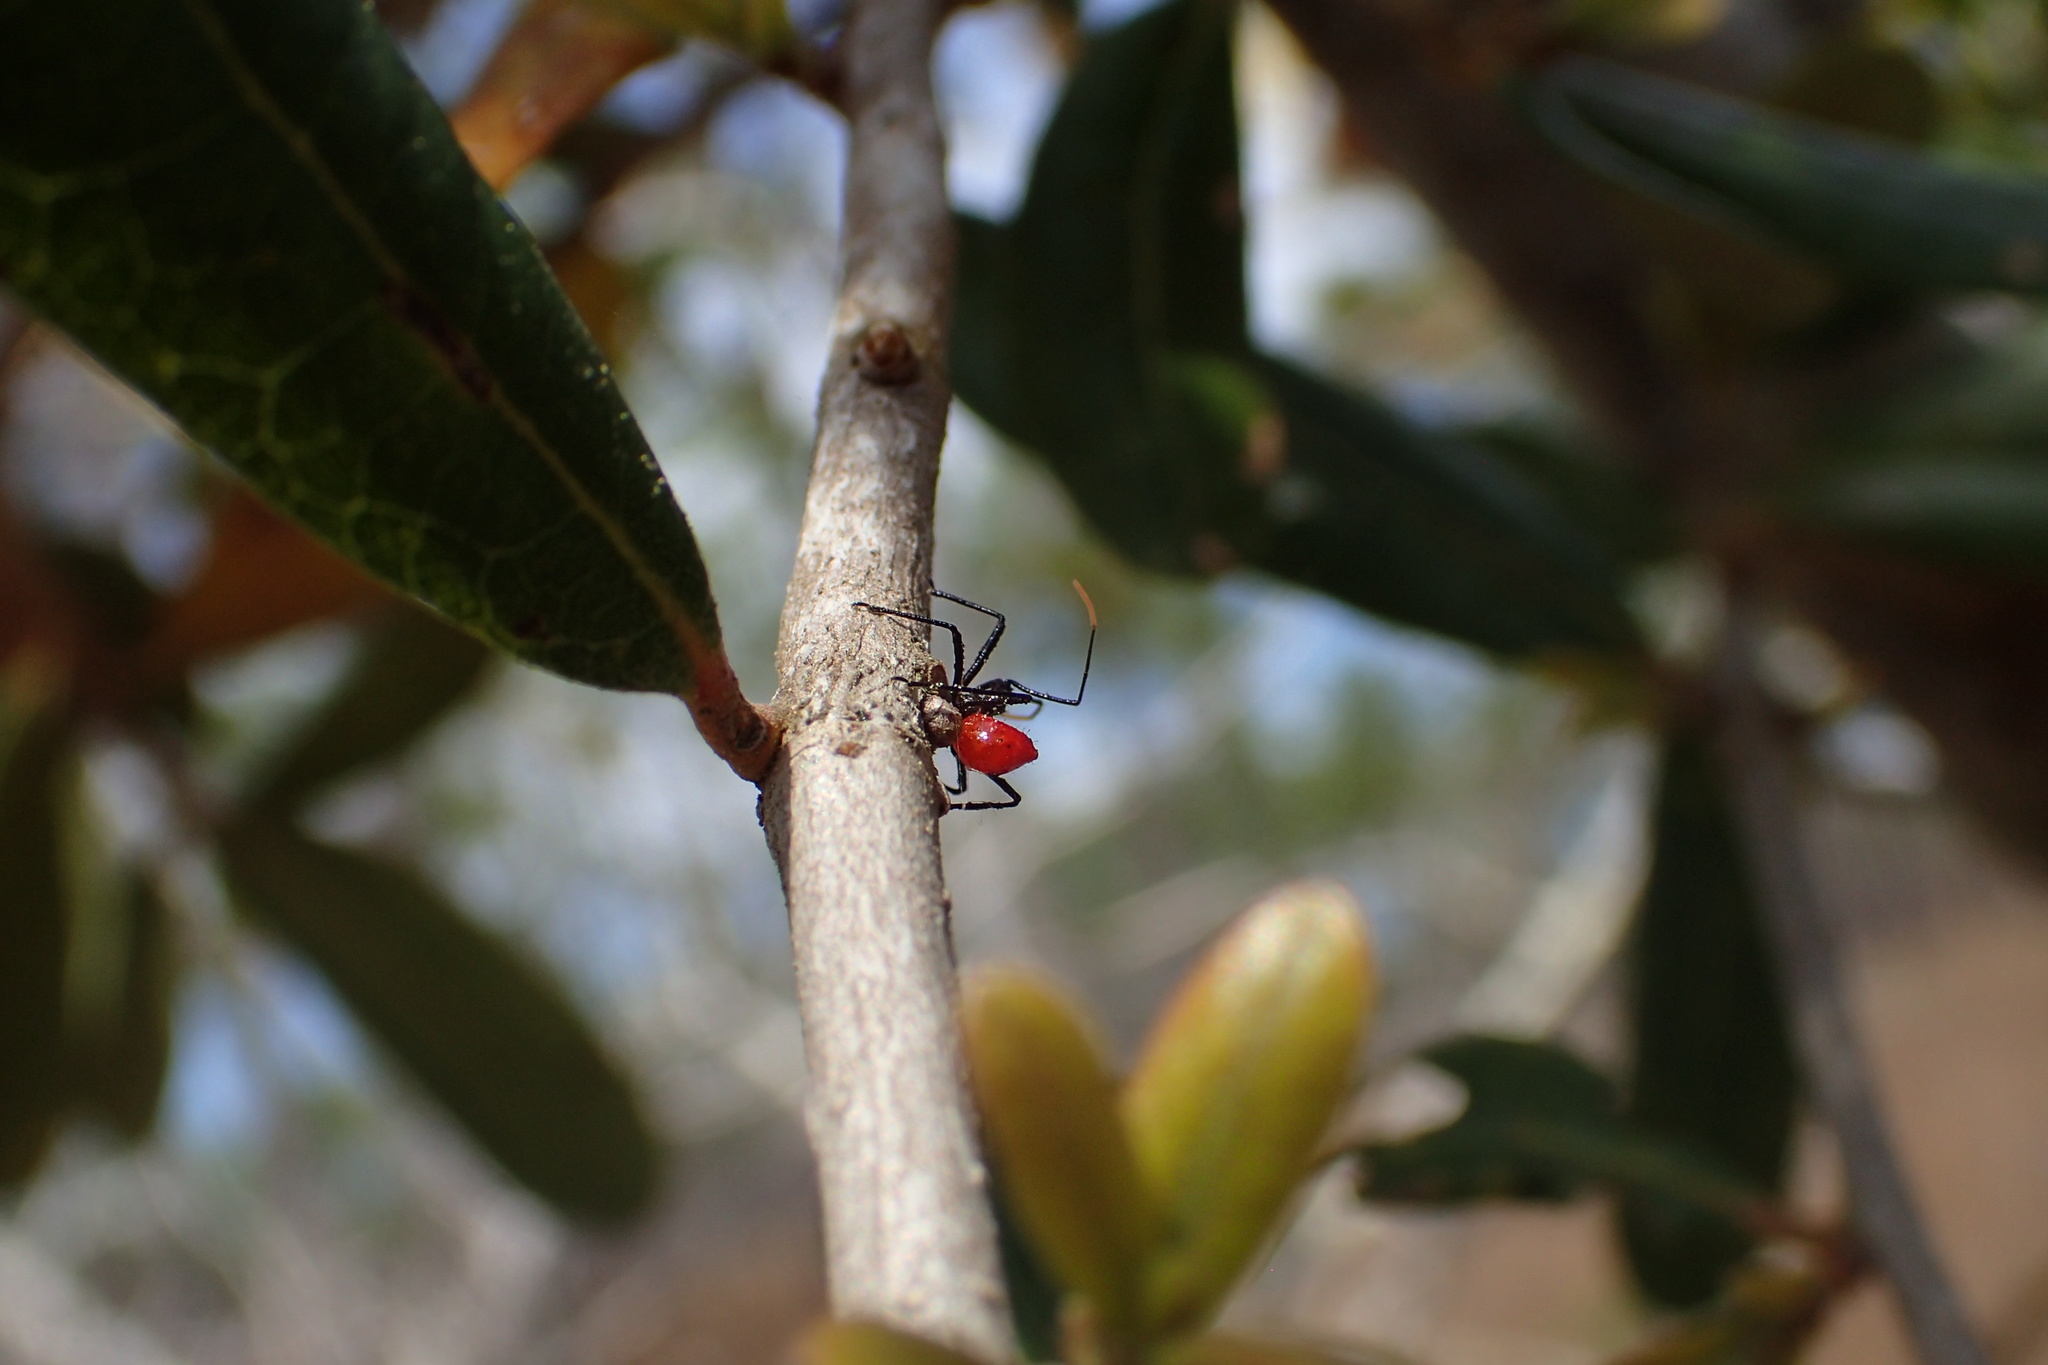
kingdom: Animalia
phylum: Arthropoda
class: Insecta
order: Hemiptera
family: Reduviidae
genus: Arilus
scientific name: Arilus cristatus
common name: North american wheel bug
